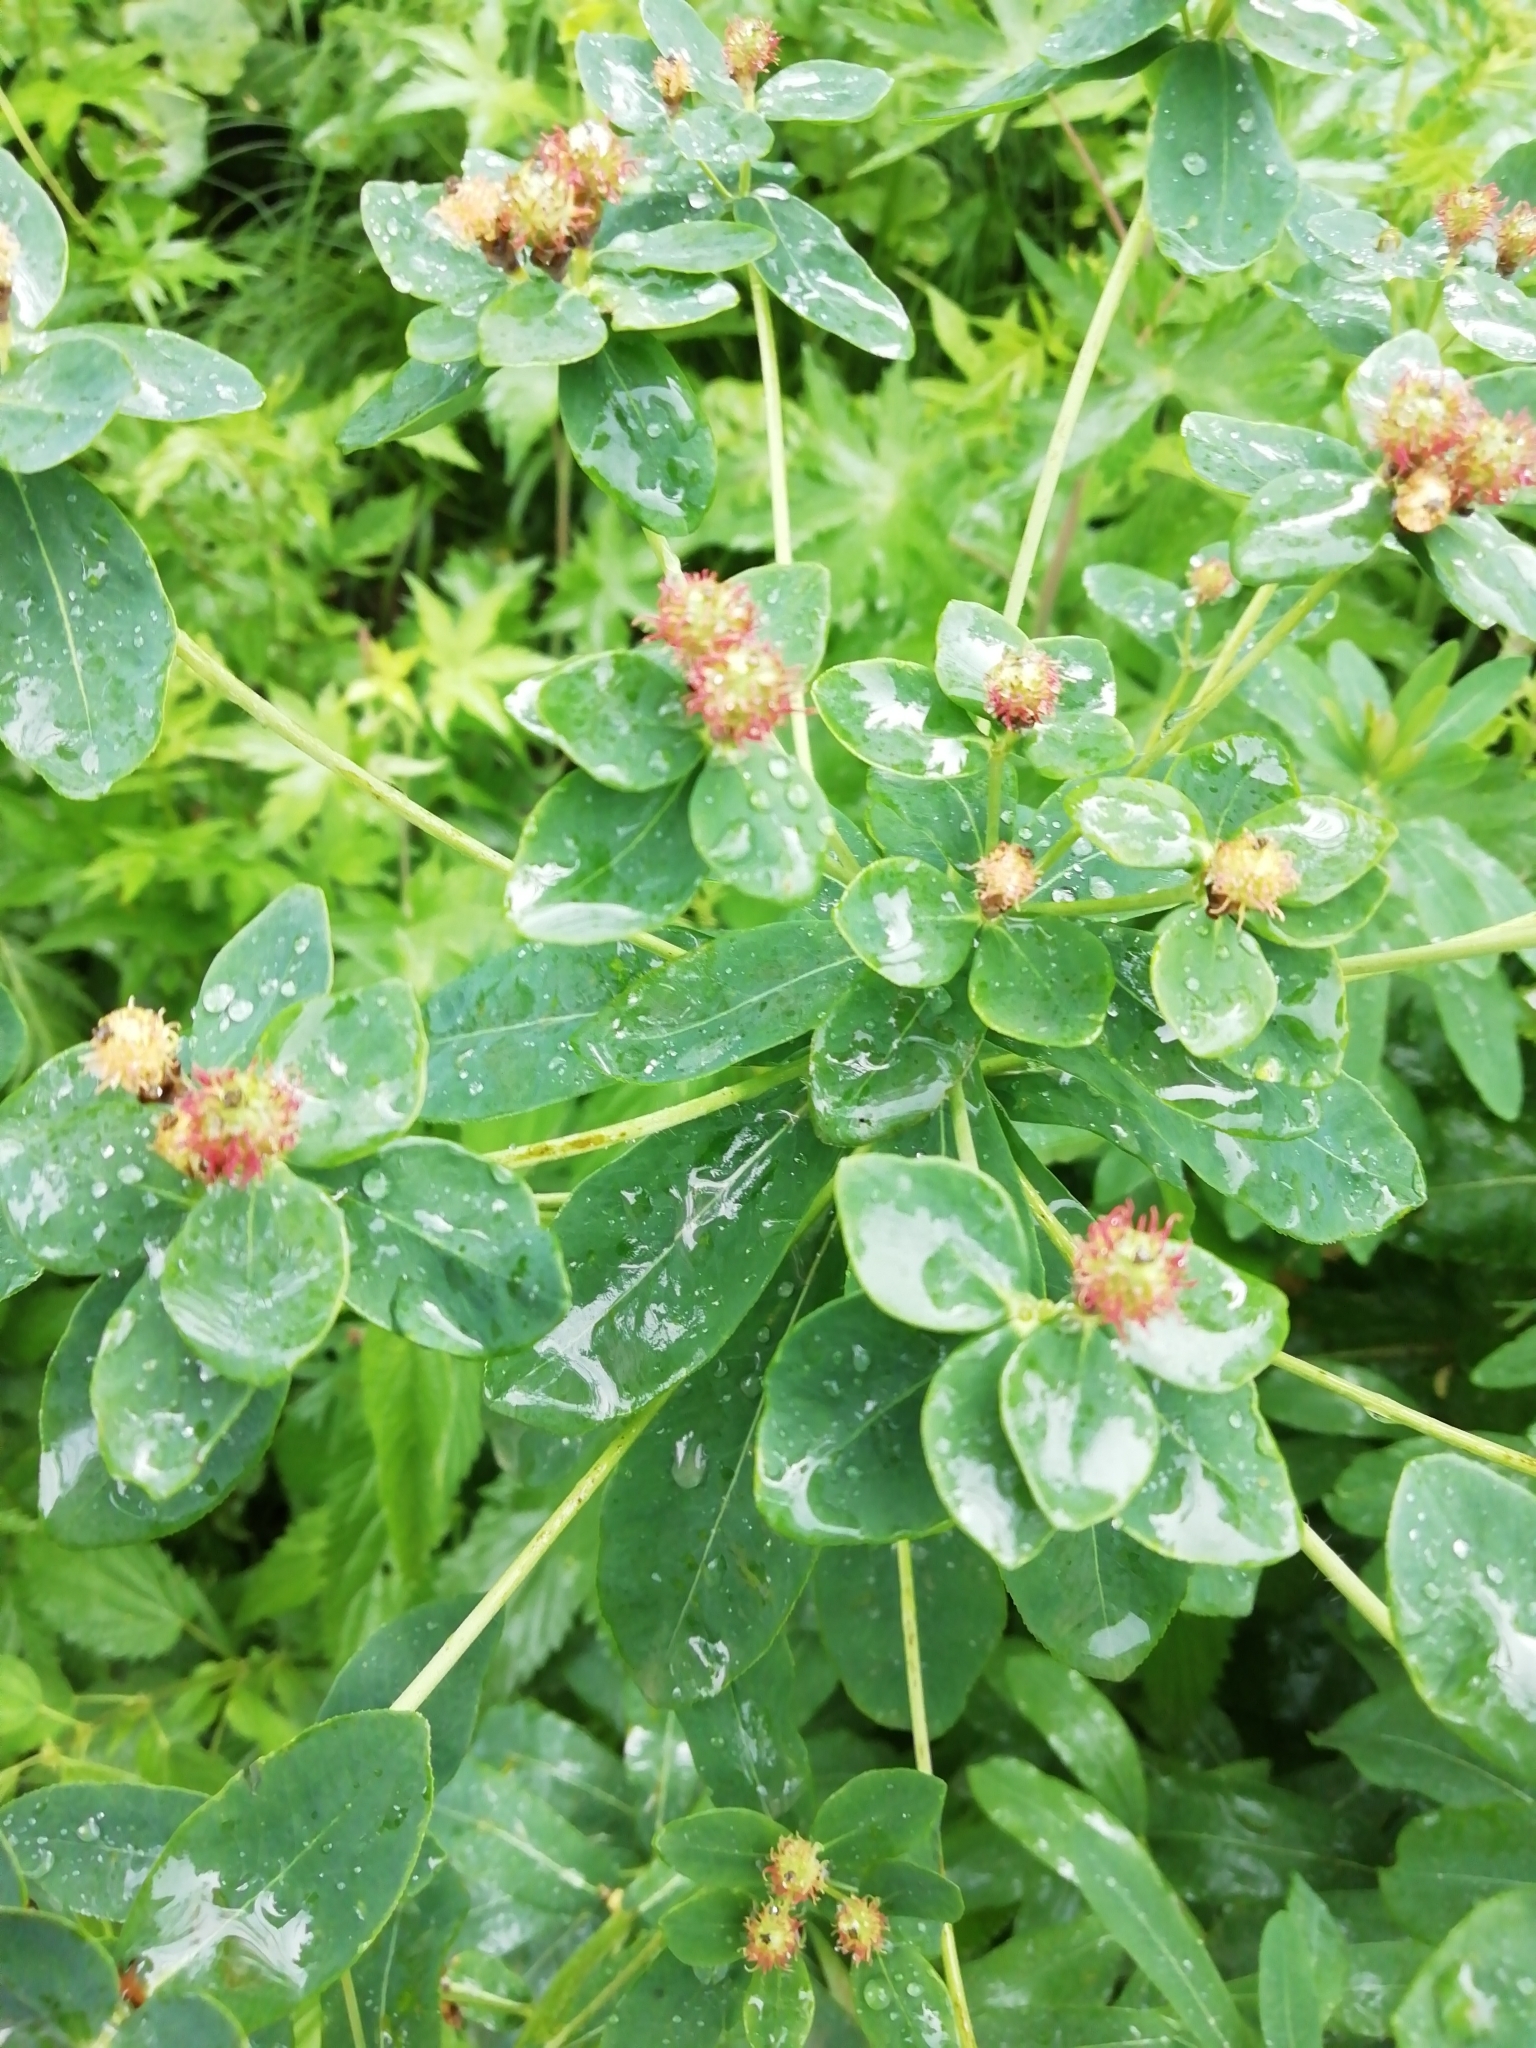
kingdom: Plantae
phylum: Tracheophyta
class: Magnoliopsida
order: Malpighiales
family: Euphorbiaceae
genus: Euphorbia
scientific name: Euphorbia pilosa
